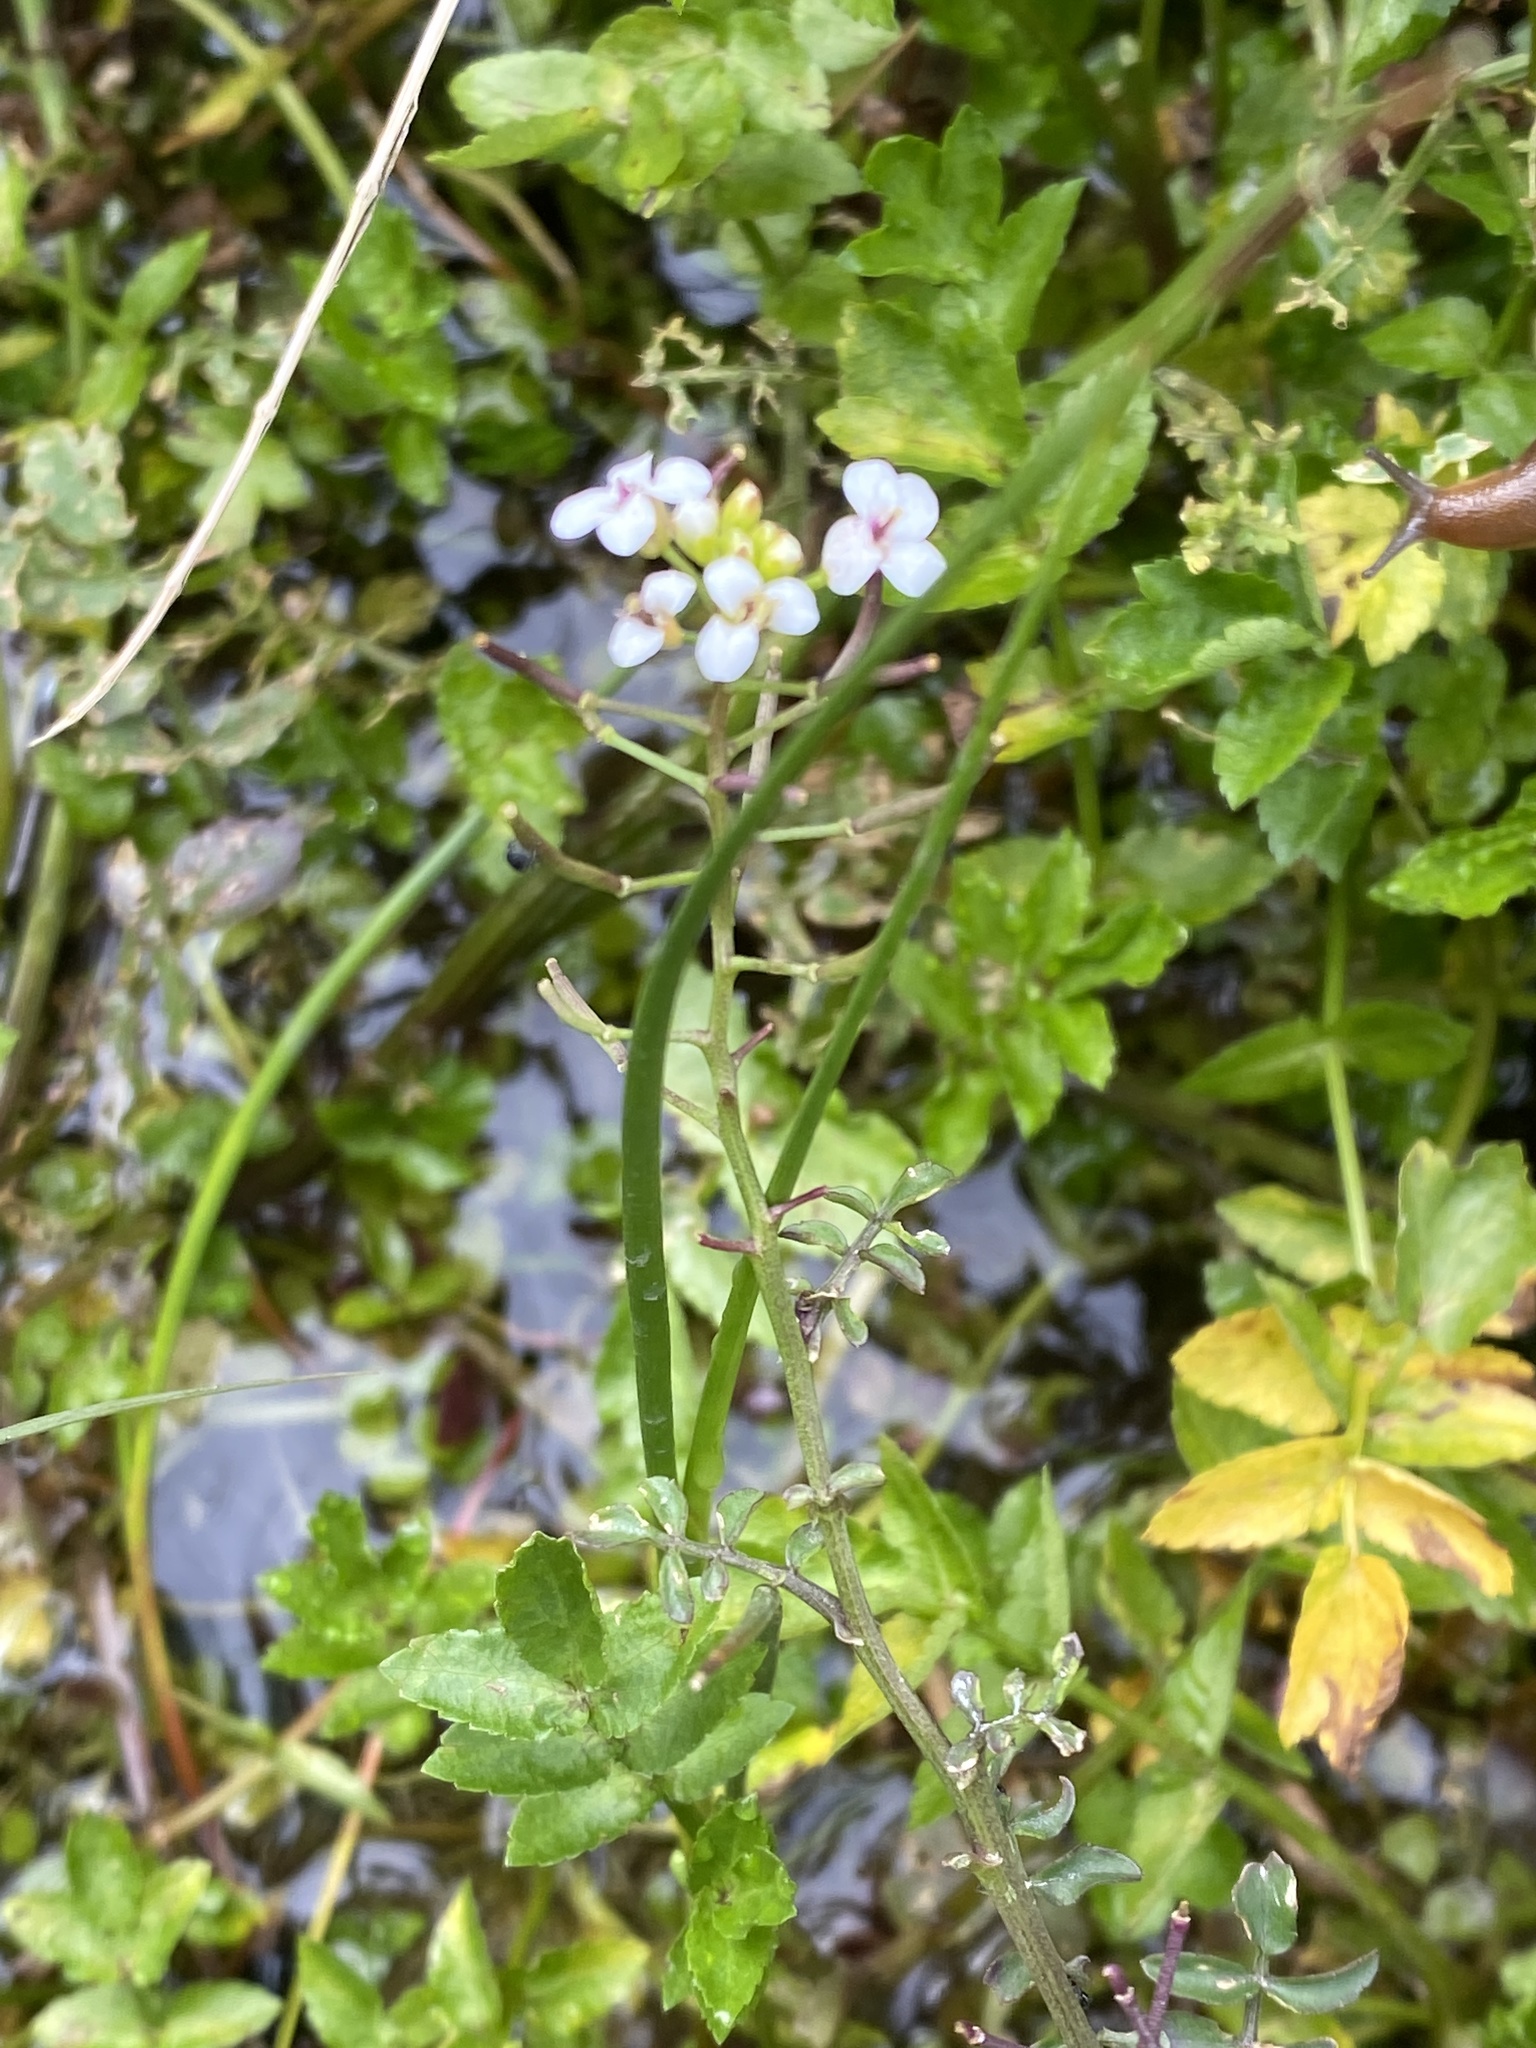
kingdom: Plantae
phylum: Tracheophyta
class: Magnoliopsida
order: Brassicales
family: Brassicaceae
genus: Nasturtium
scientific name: Nasturtium officinale
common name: Watercress
